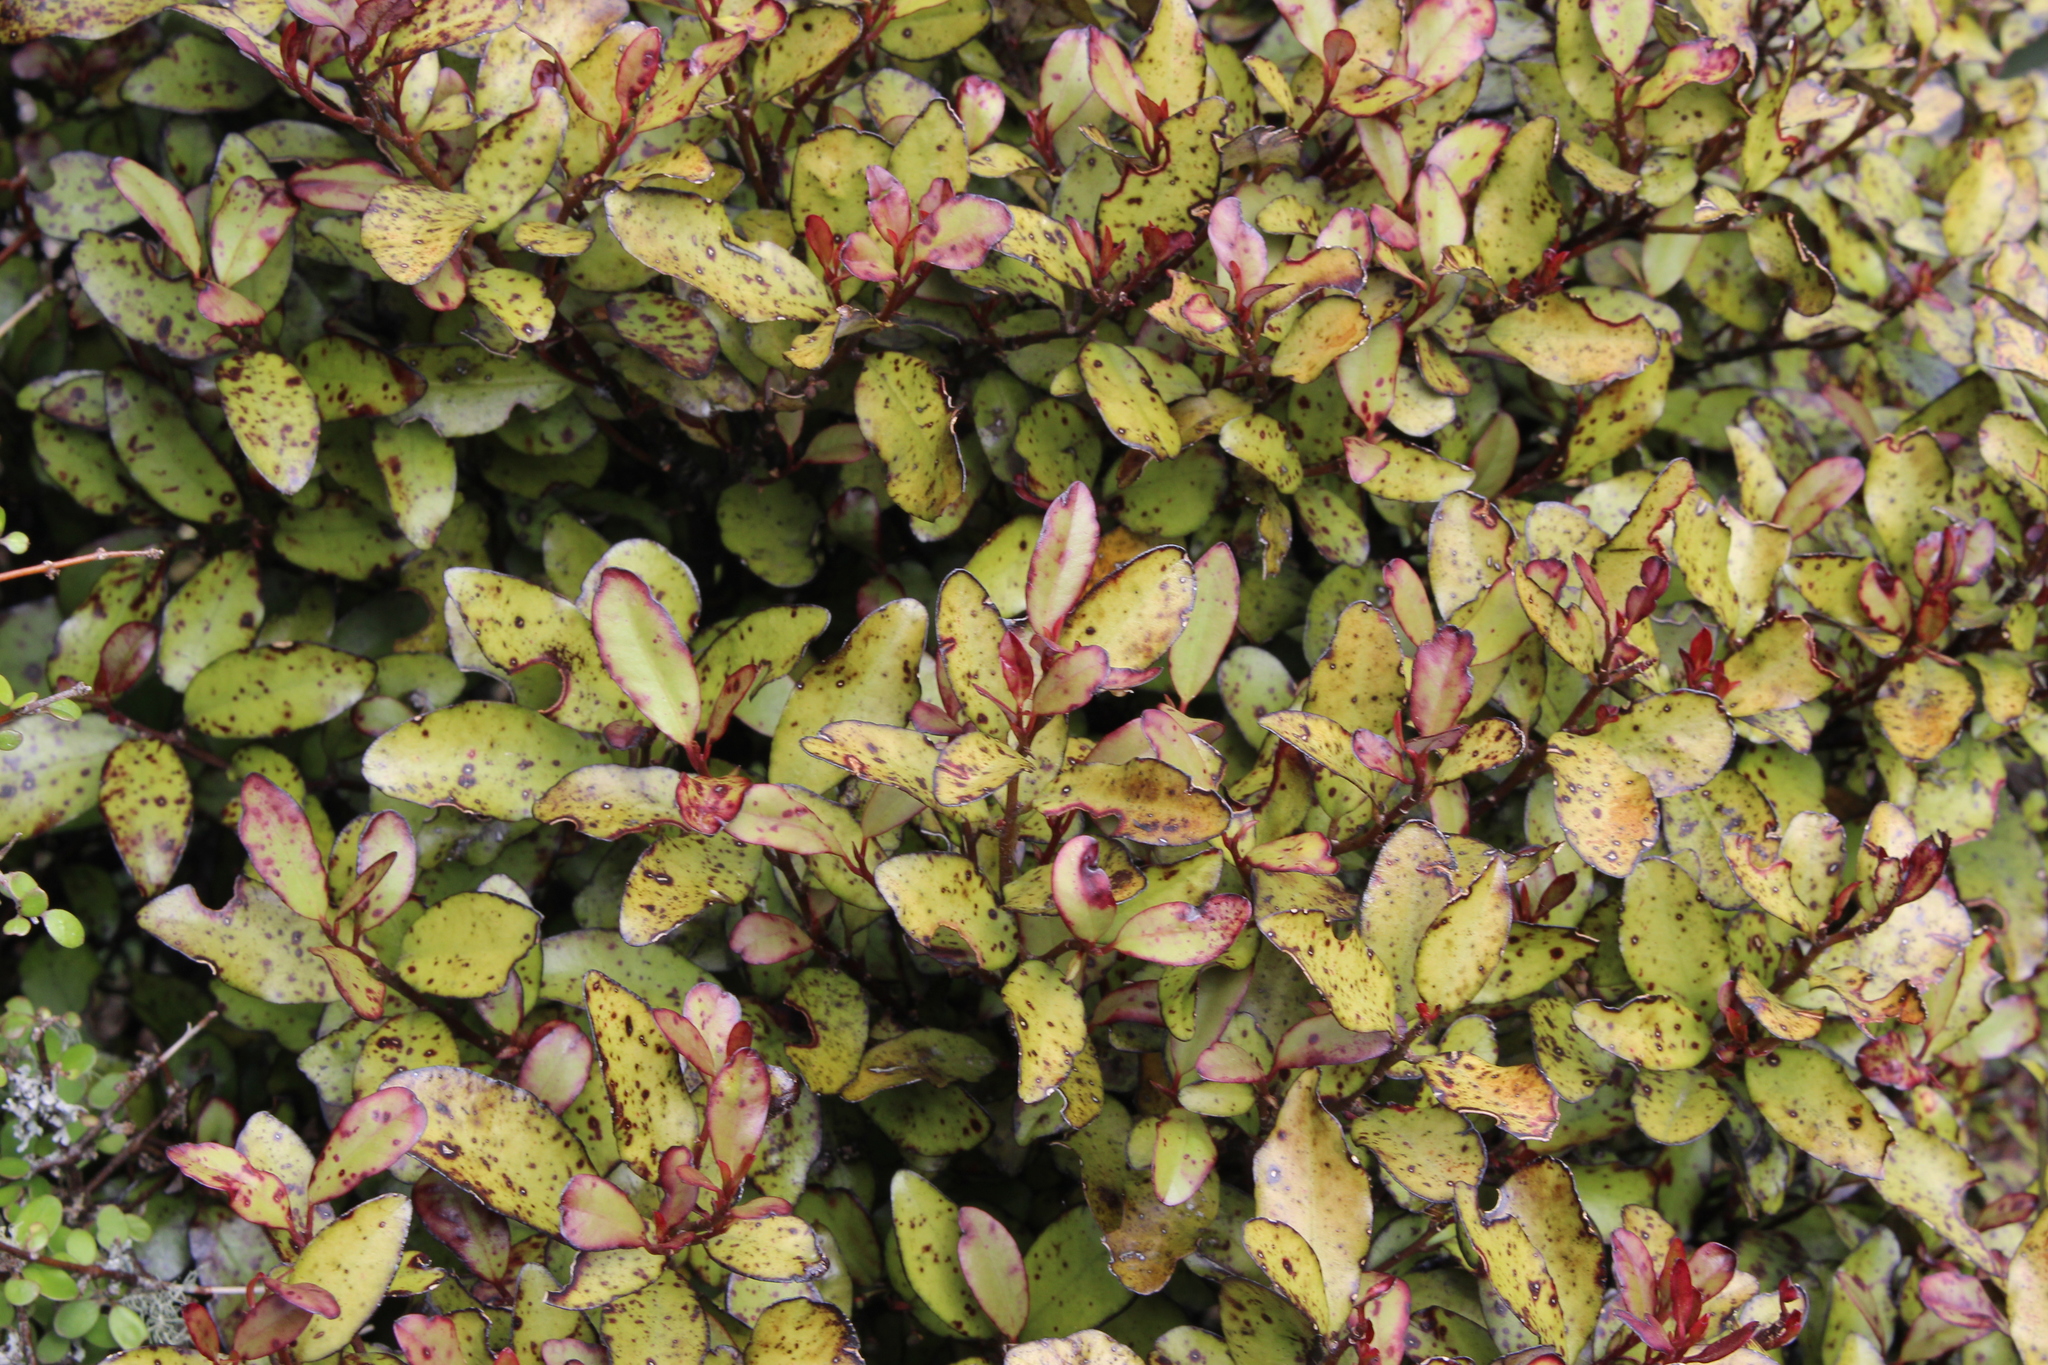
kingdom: Plantae
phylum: Tracheophyta
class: Magnoliopsida
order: Canellales
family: Winteraceae
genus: Pseudowintera
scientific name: Pseudowintera colorata
